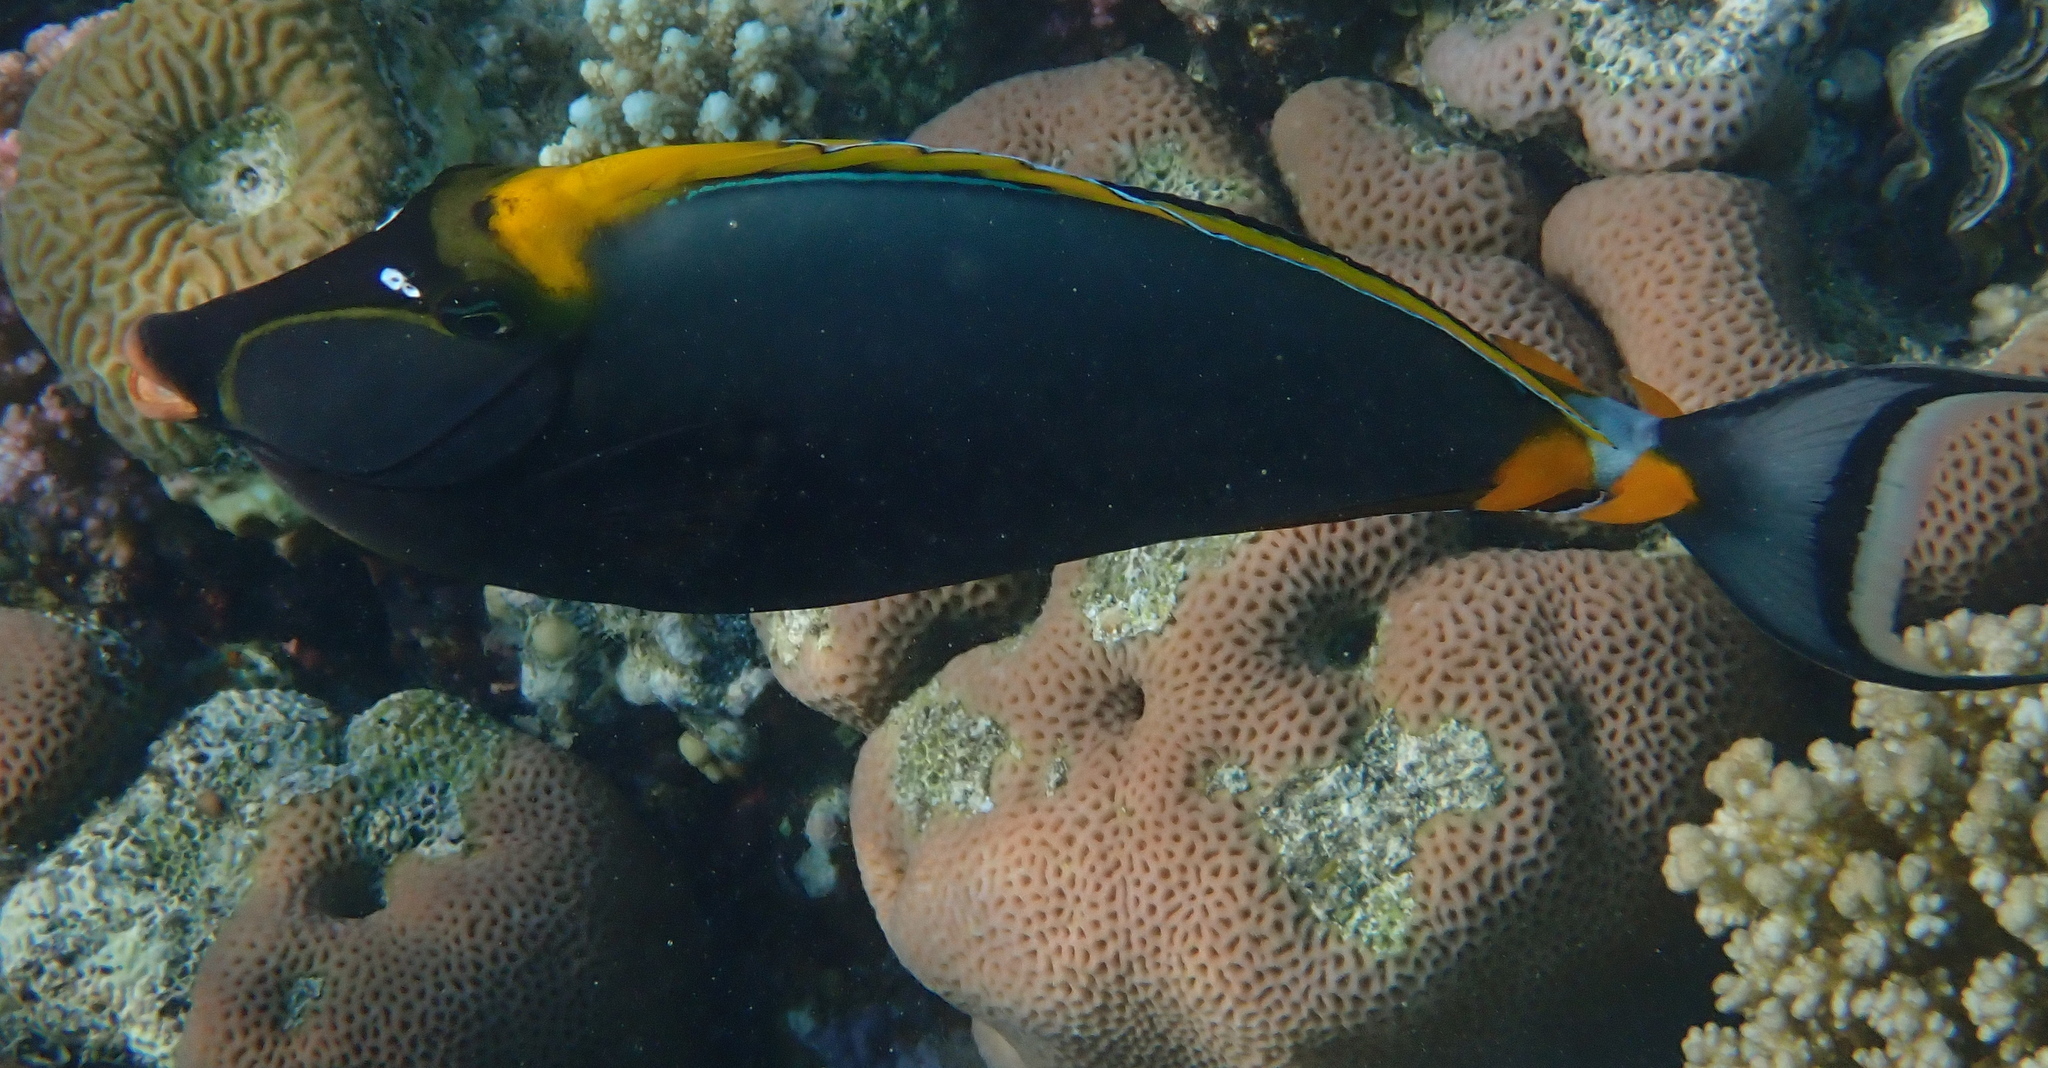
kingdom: Animalia
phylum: Chordata
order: Perciformes
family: Acanthuridae
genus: Naso
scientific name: Naso elegans
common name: Orangespine unicornfish
